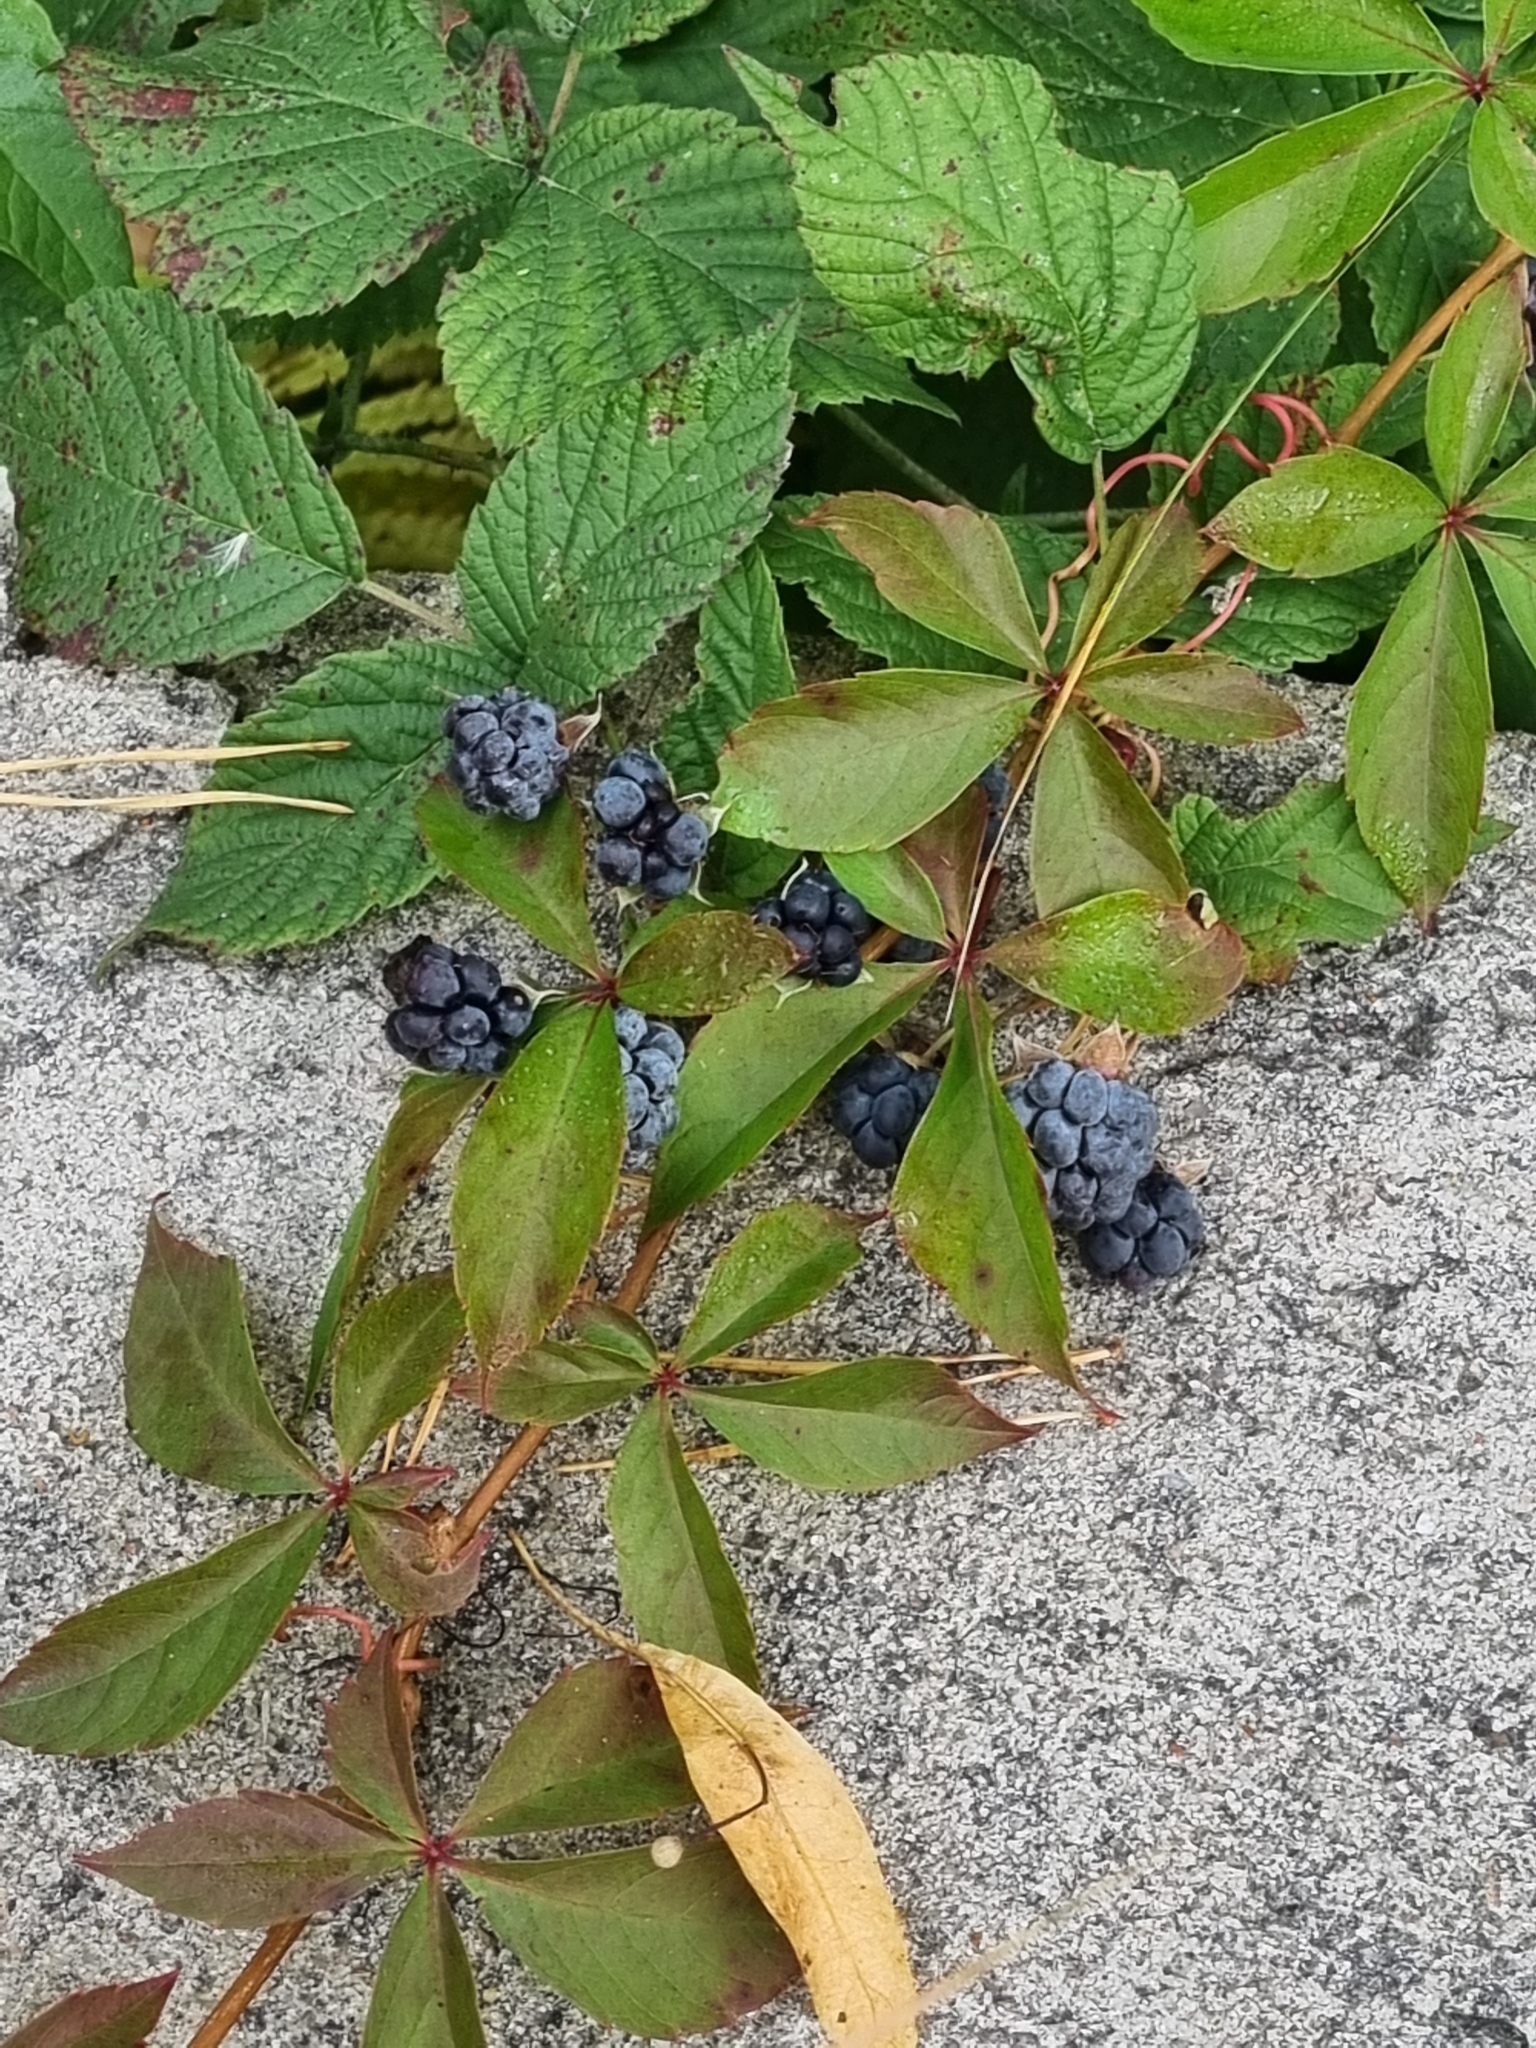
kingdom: Plantae
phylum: Tracheophyta
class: Magnoliopsida
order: Rosales
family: Rosaceae
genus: Rubus
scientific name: Rubus caesius
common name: Dewberry
